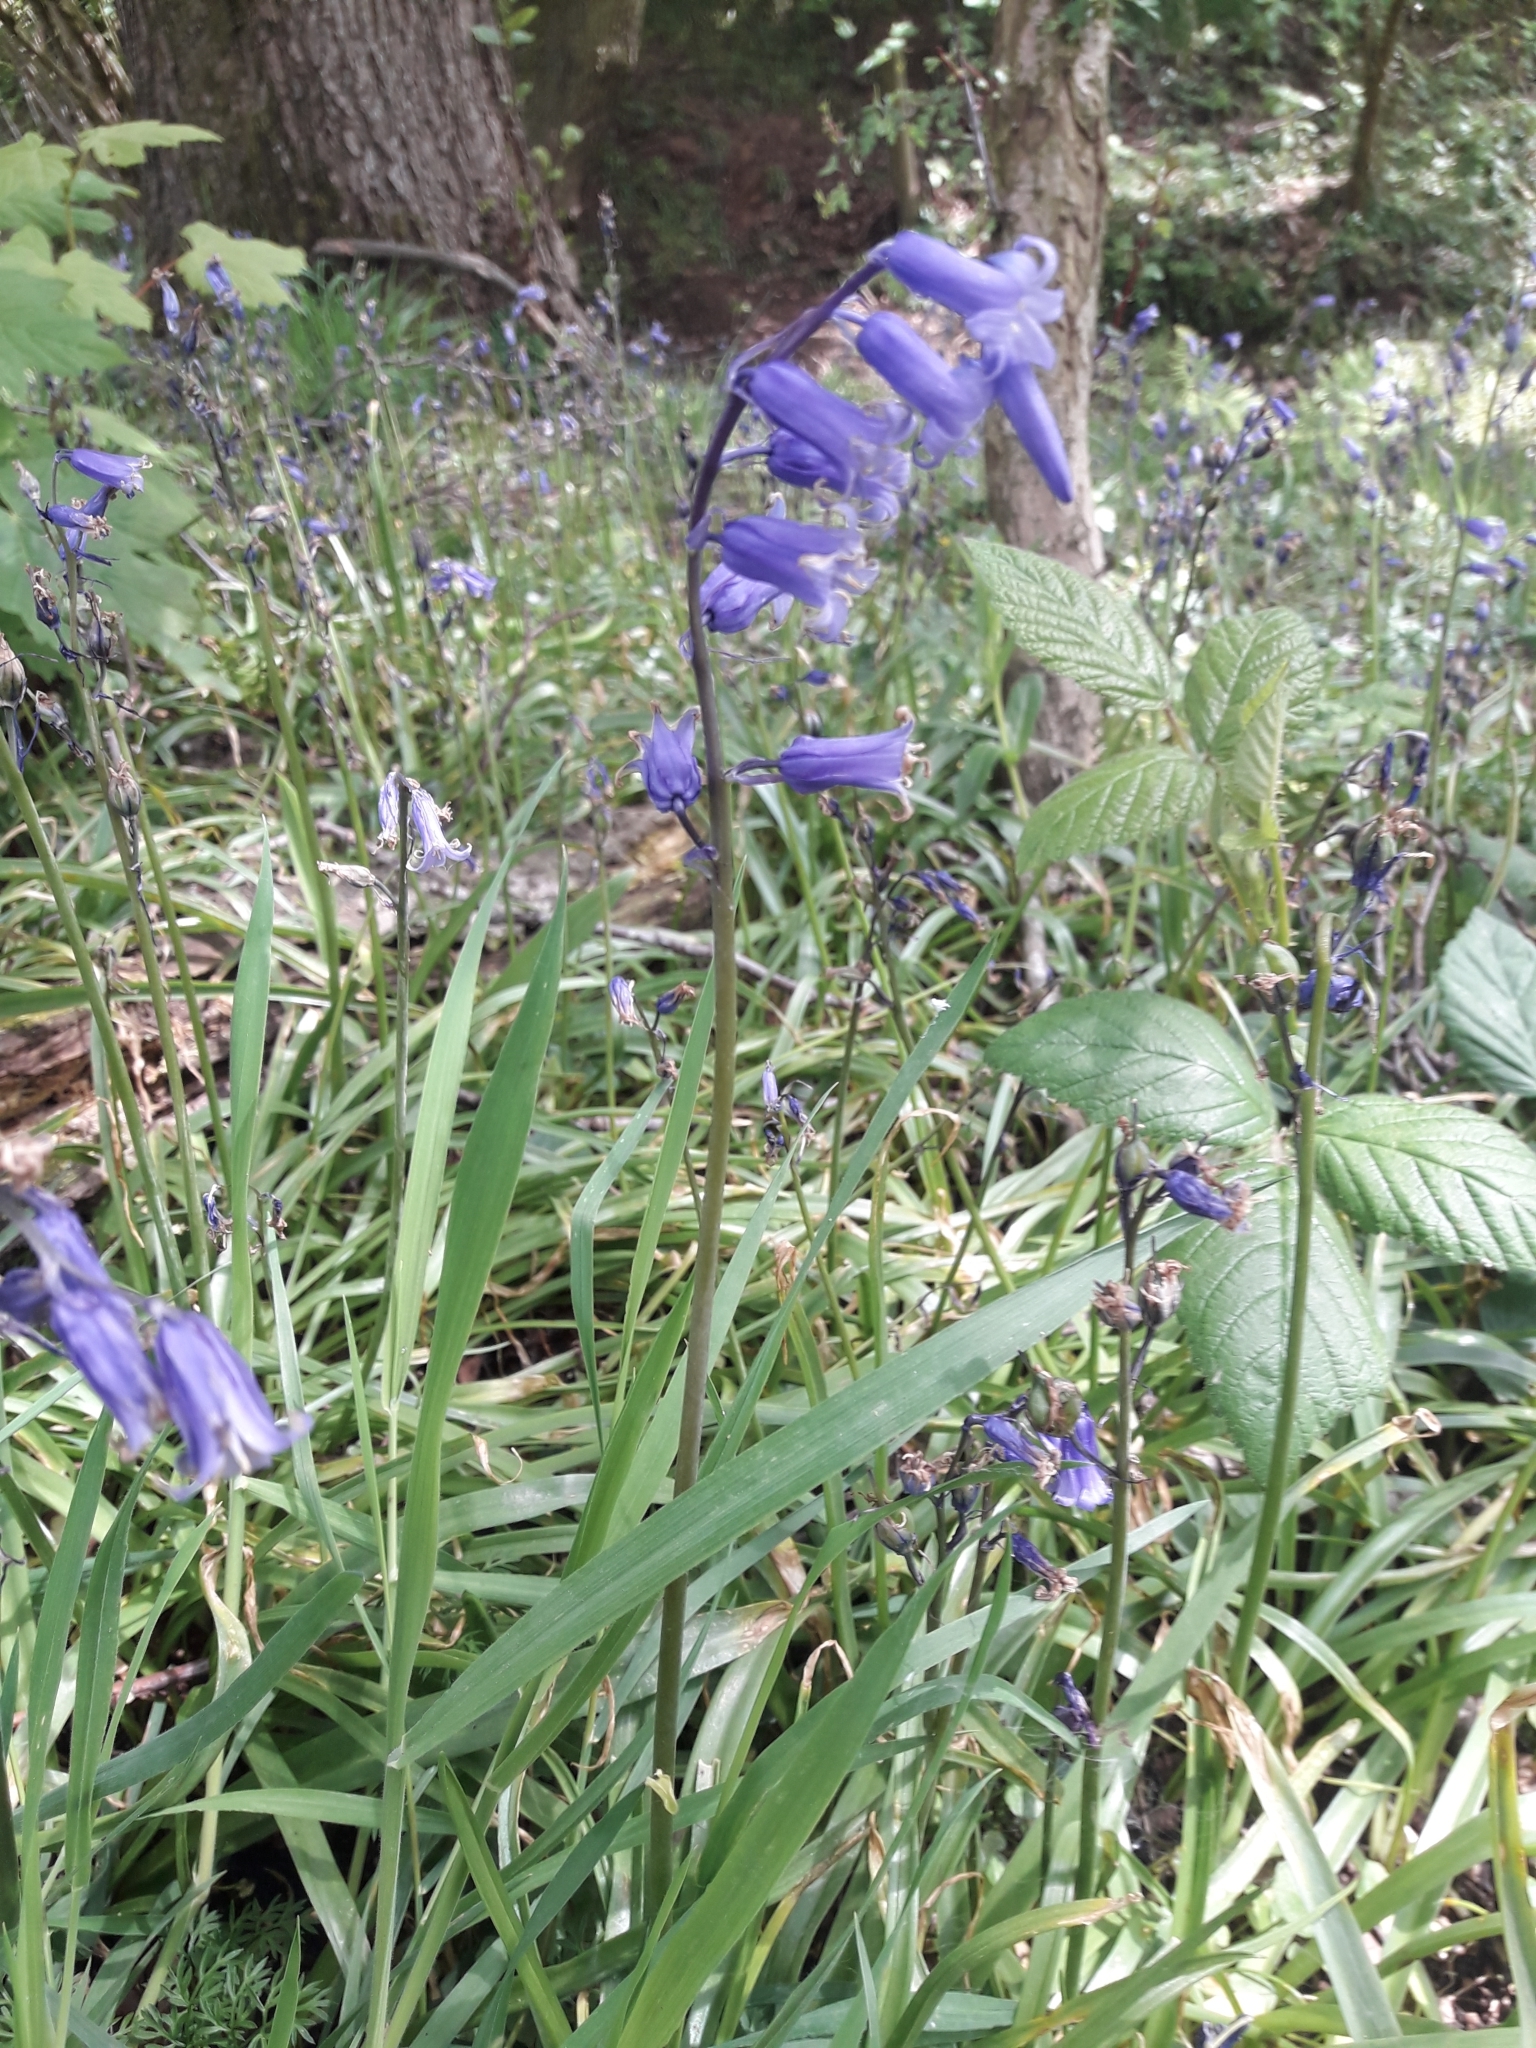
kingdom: Plantae
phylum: Tracheophyta
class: Liliopsida
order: Asparagales
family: Asparagaceae
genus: Hyacinthoides
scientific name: Hyacinthoides non-scripta
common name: Bluebell
